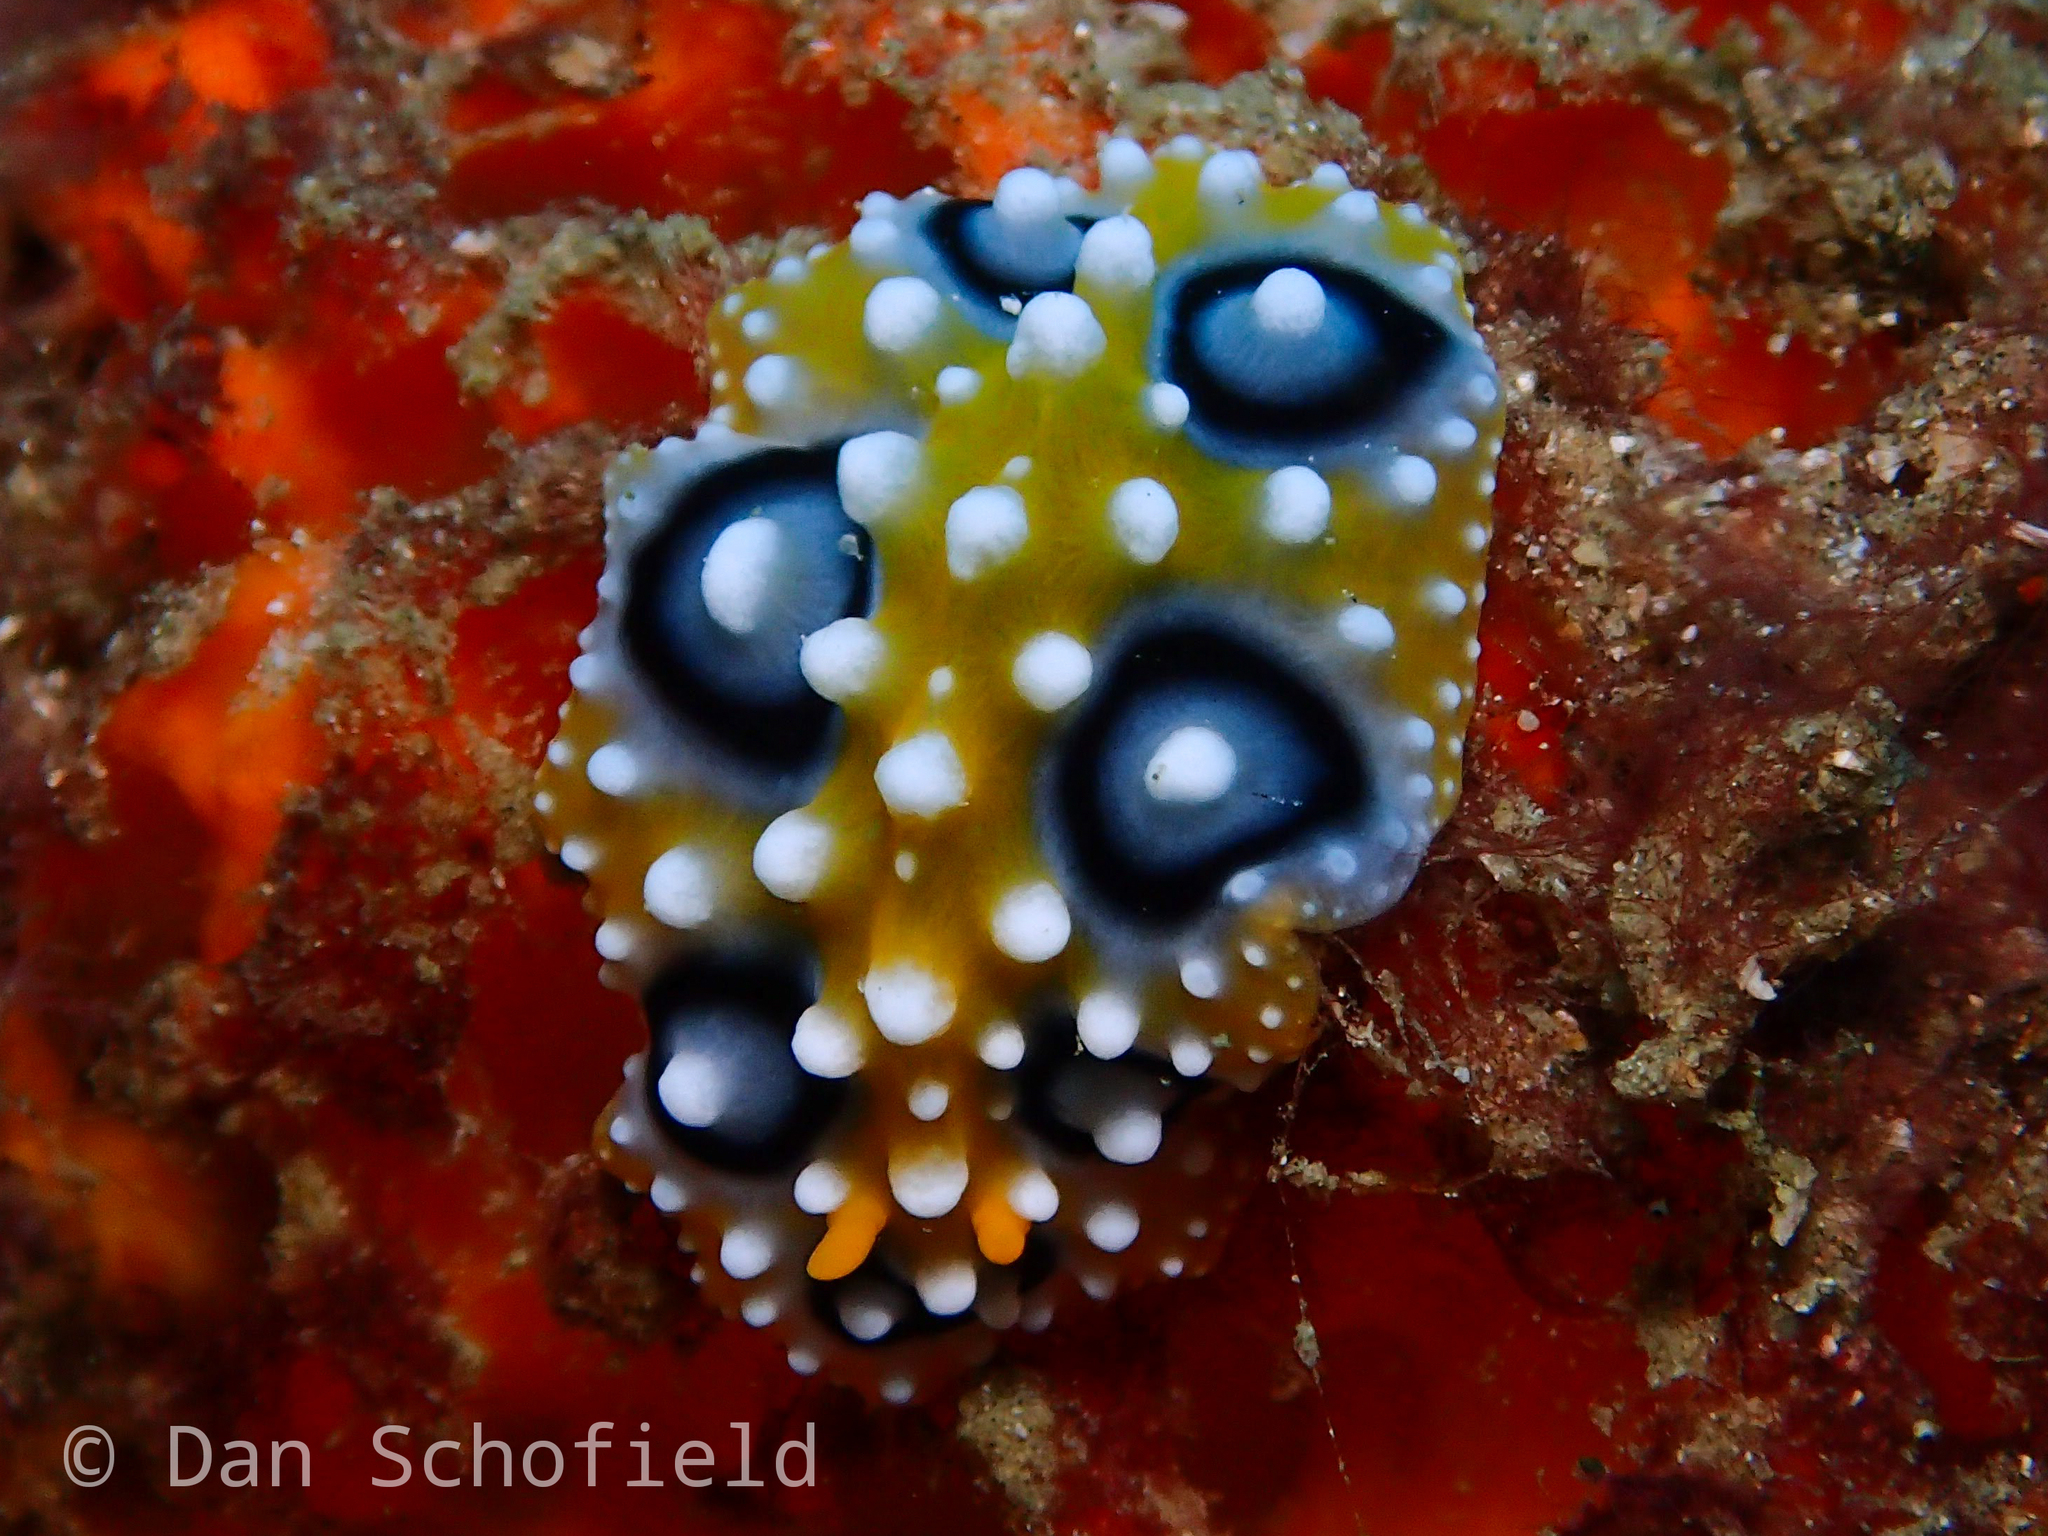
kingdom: Animalia
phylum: Mollusca
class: Gastropoda
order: Nudibranchia
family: Phyllidiidae
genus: Phyllidia
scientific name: Phyllidia ocellata
